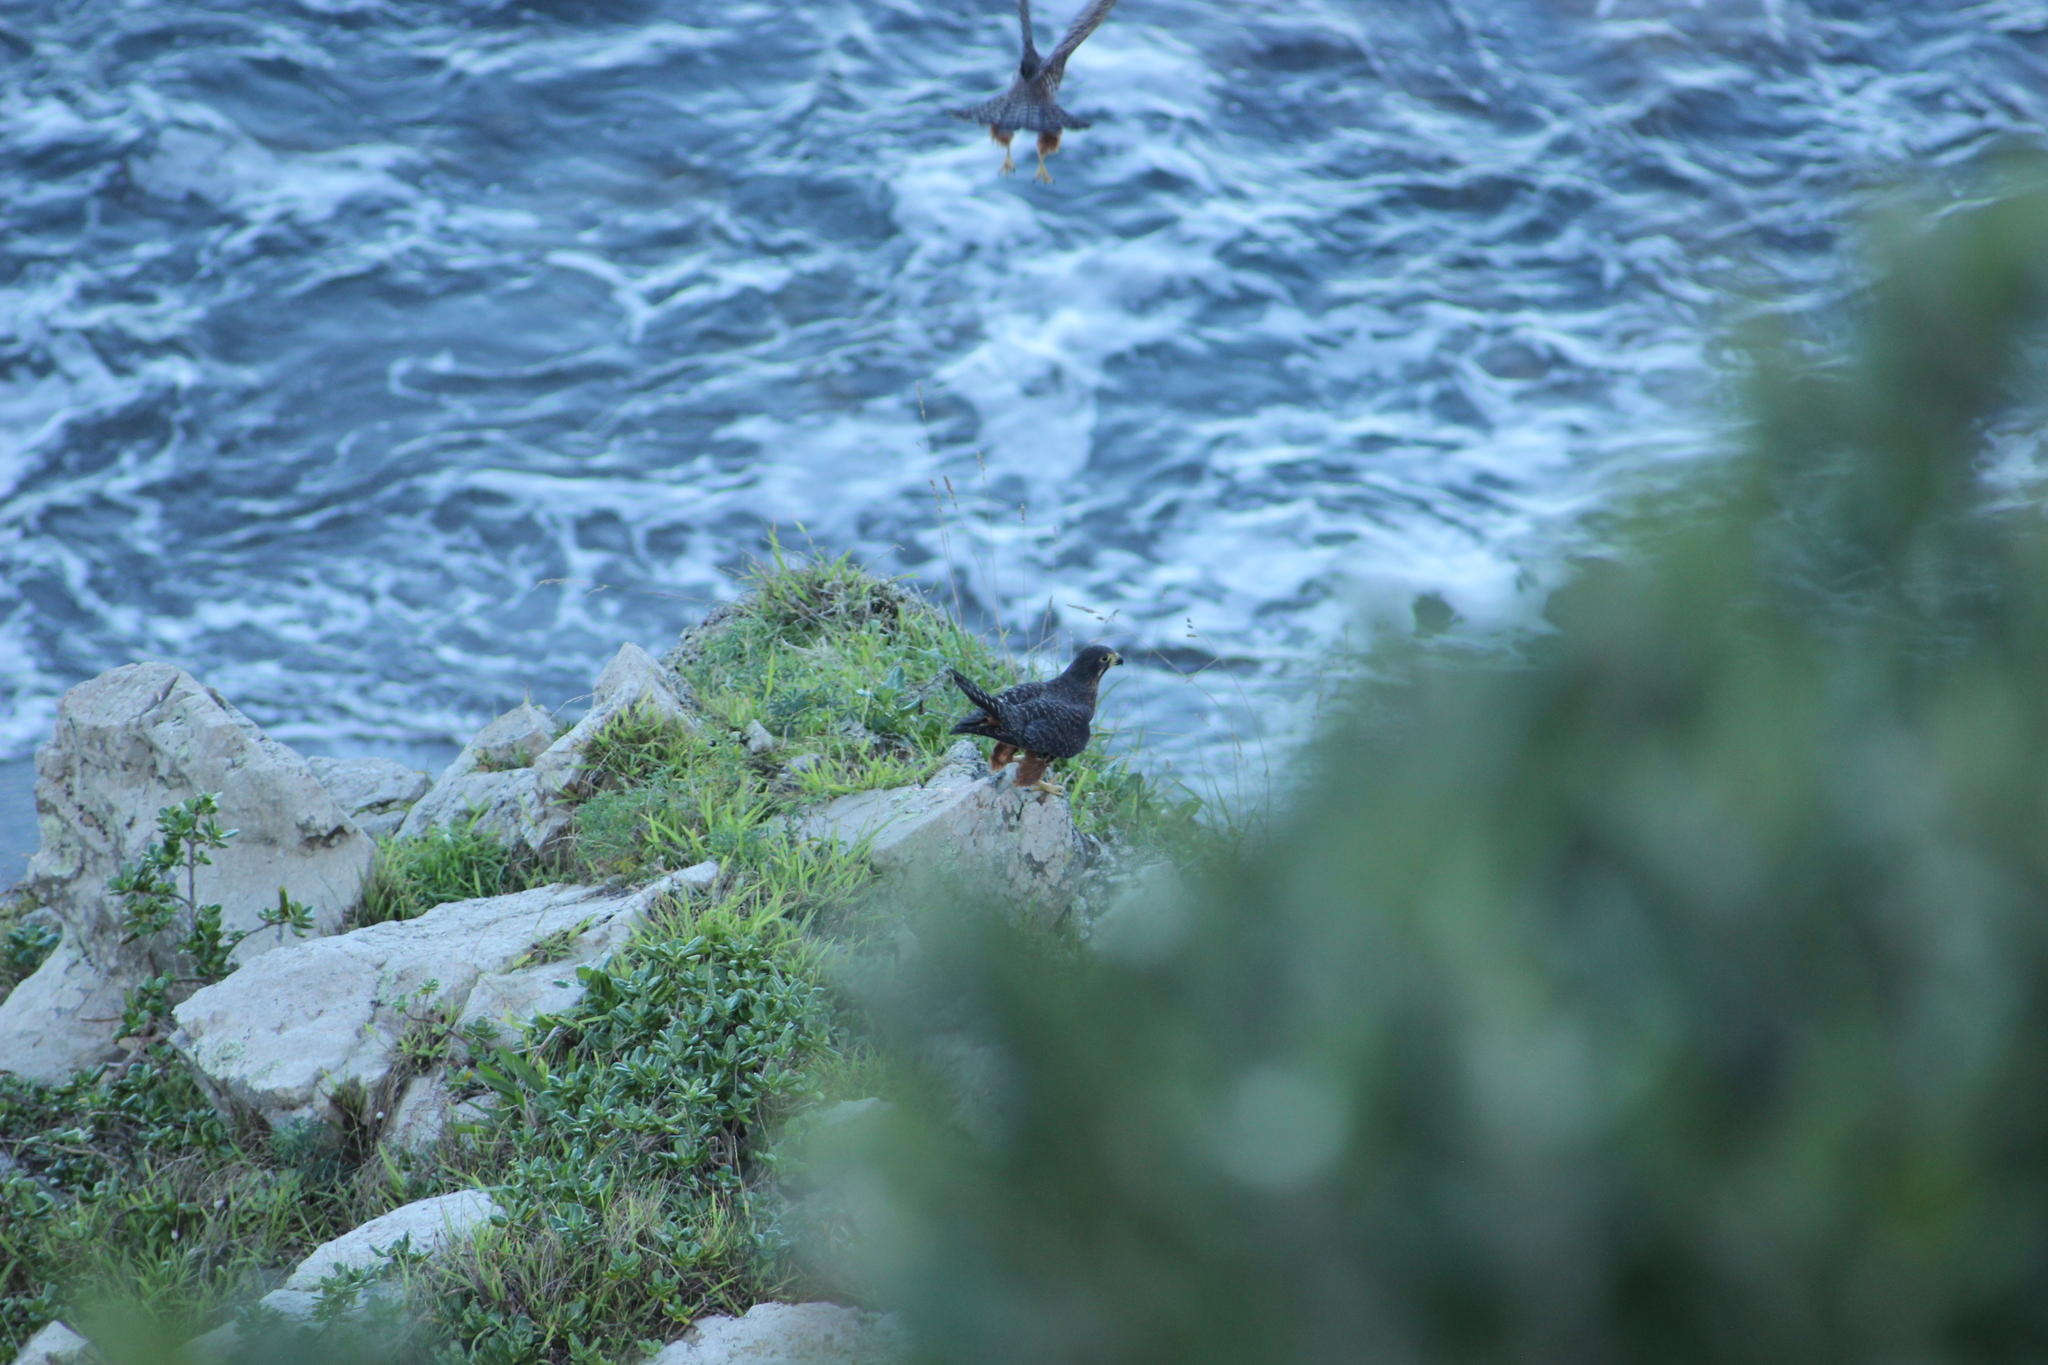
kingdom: Animalia
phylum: Chordata
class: Aves
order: Falconiformes
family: Falconidae
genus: Falco
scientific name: Falco novaeseelandiae
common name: New zealand falcon
